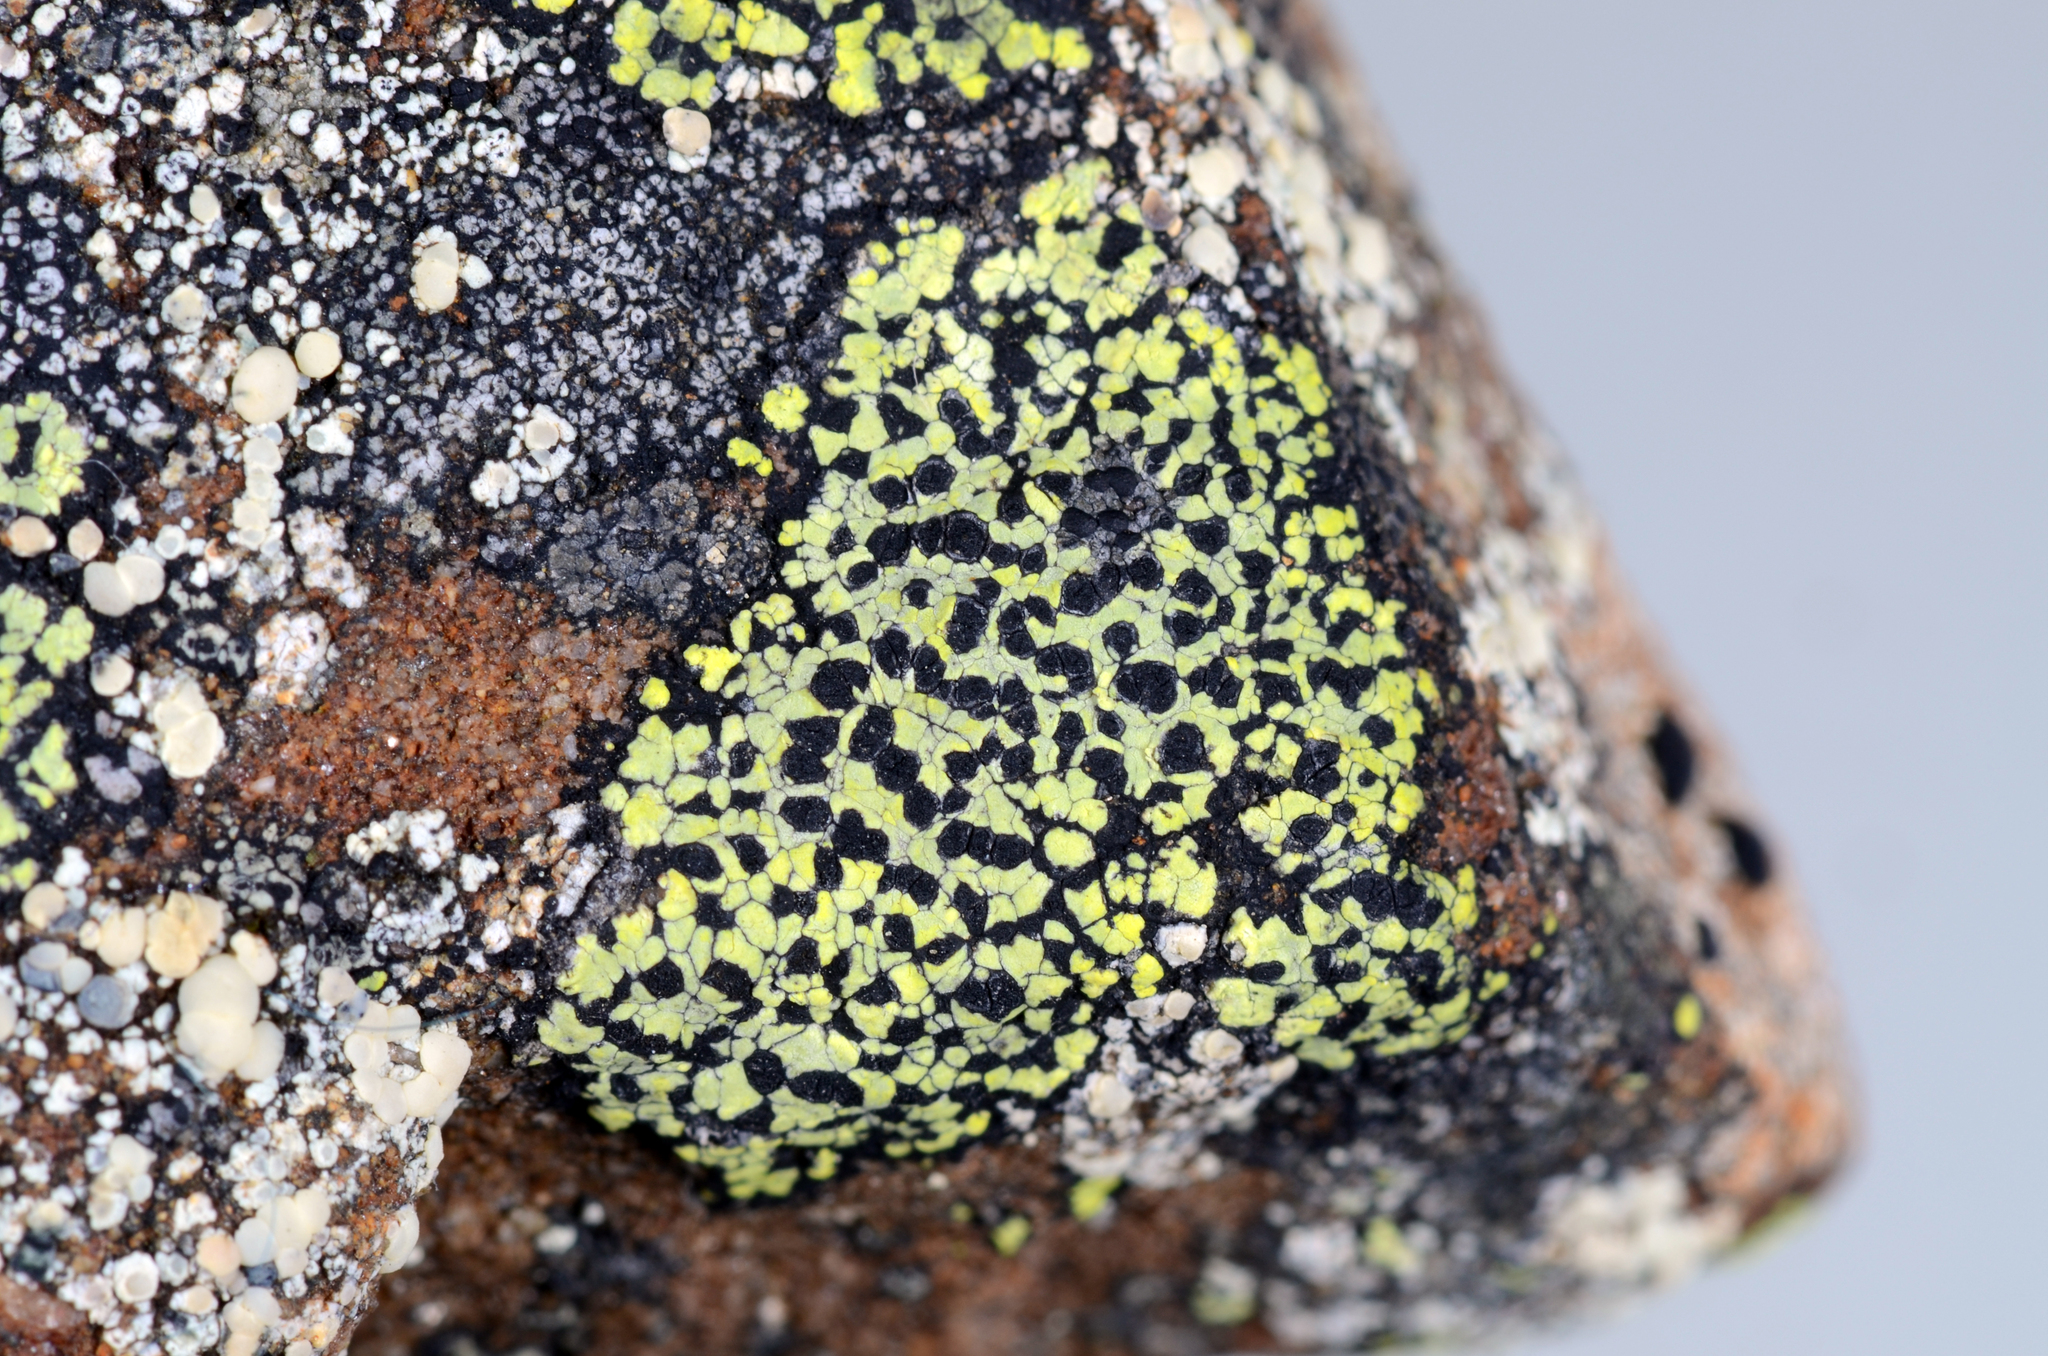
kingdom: Fungi
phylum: Ascomycota
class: Lecanoromycetes
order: Rhizocarpales
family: Rhizocarpaceae
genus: Rhizocarpon
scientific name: Rhizocarpon geographicum
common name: Yellow map lichen
